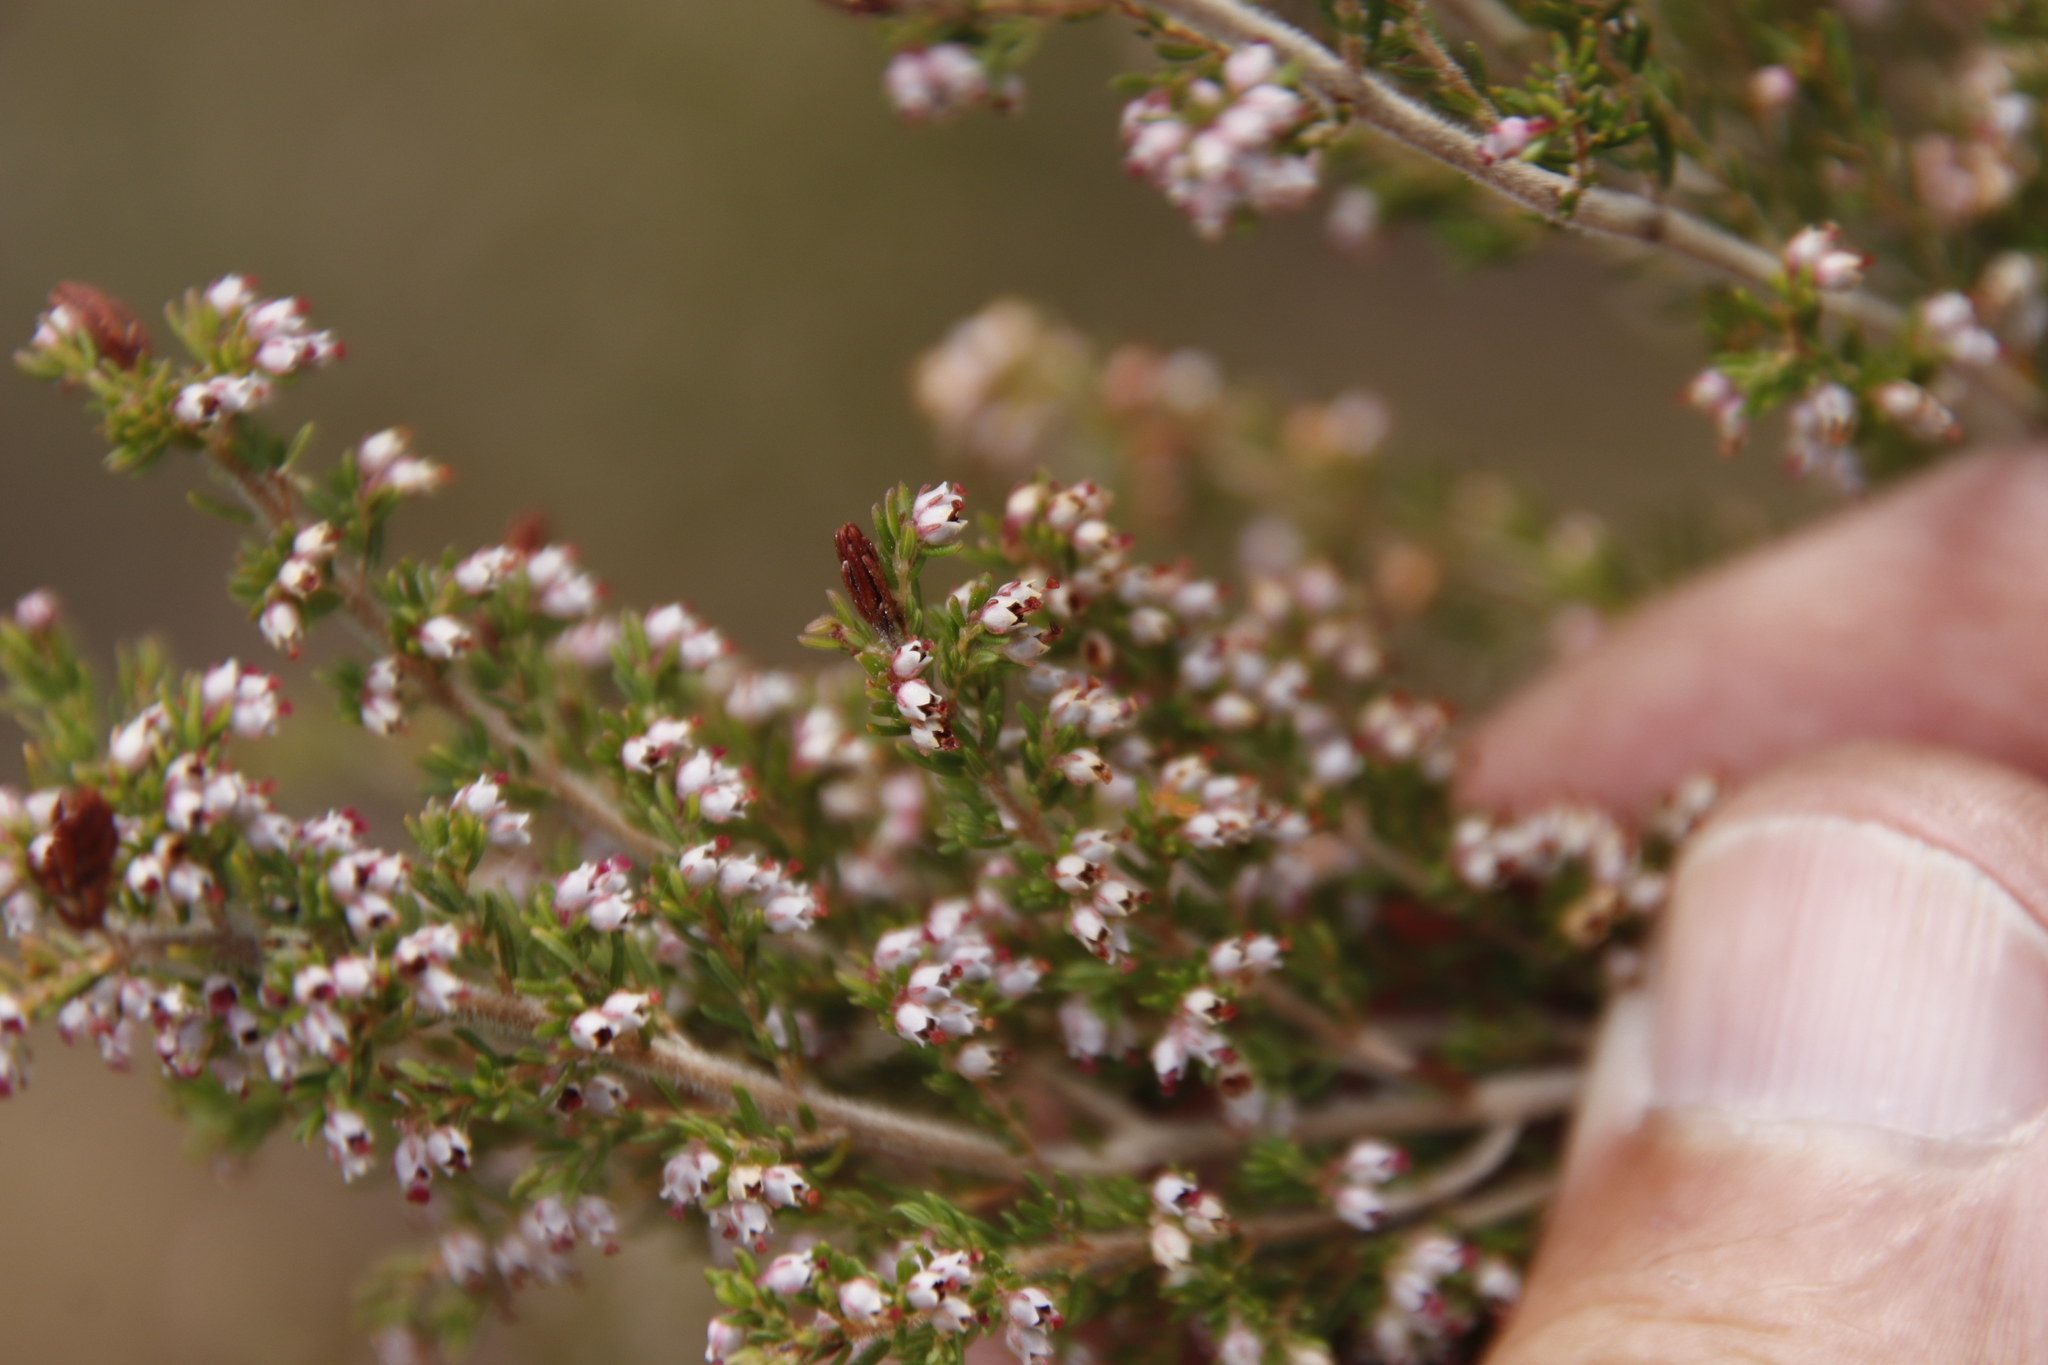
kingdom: Plantae
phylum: Tracheophyta
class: Magnoliopsida
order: Ericales
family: Ericaceae
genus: Erica
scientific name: Erica hispidula
